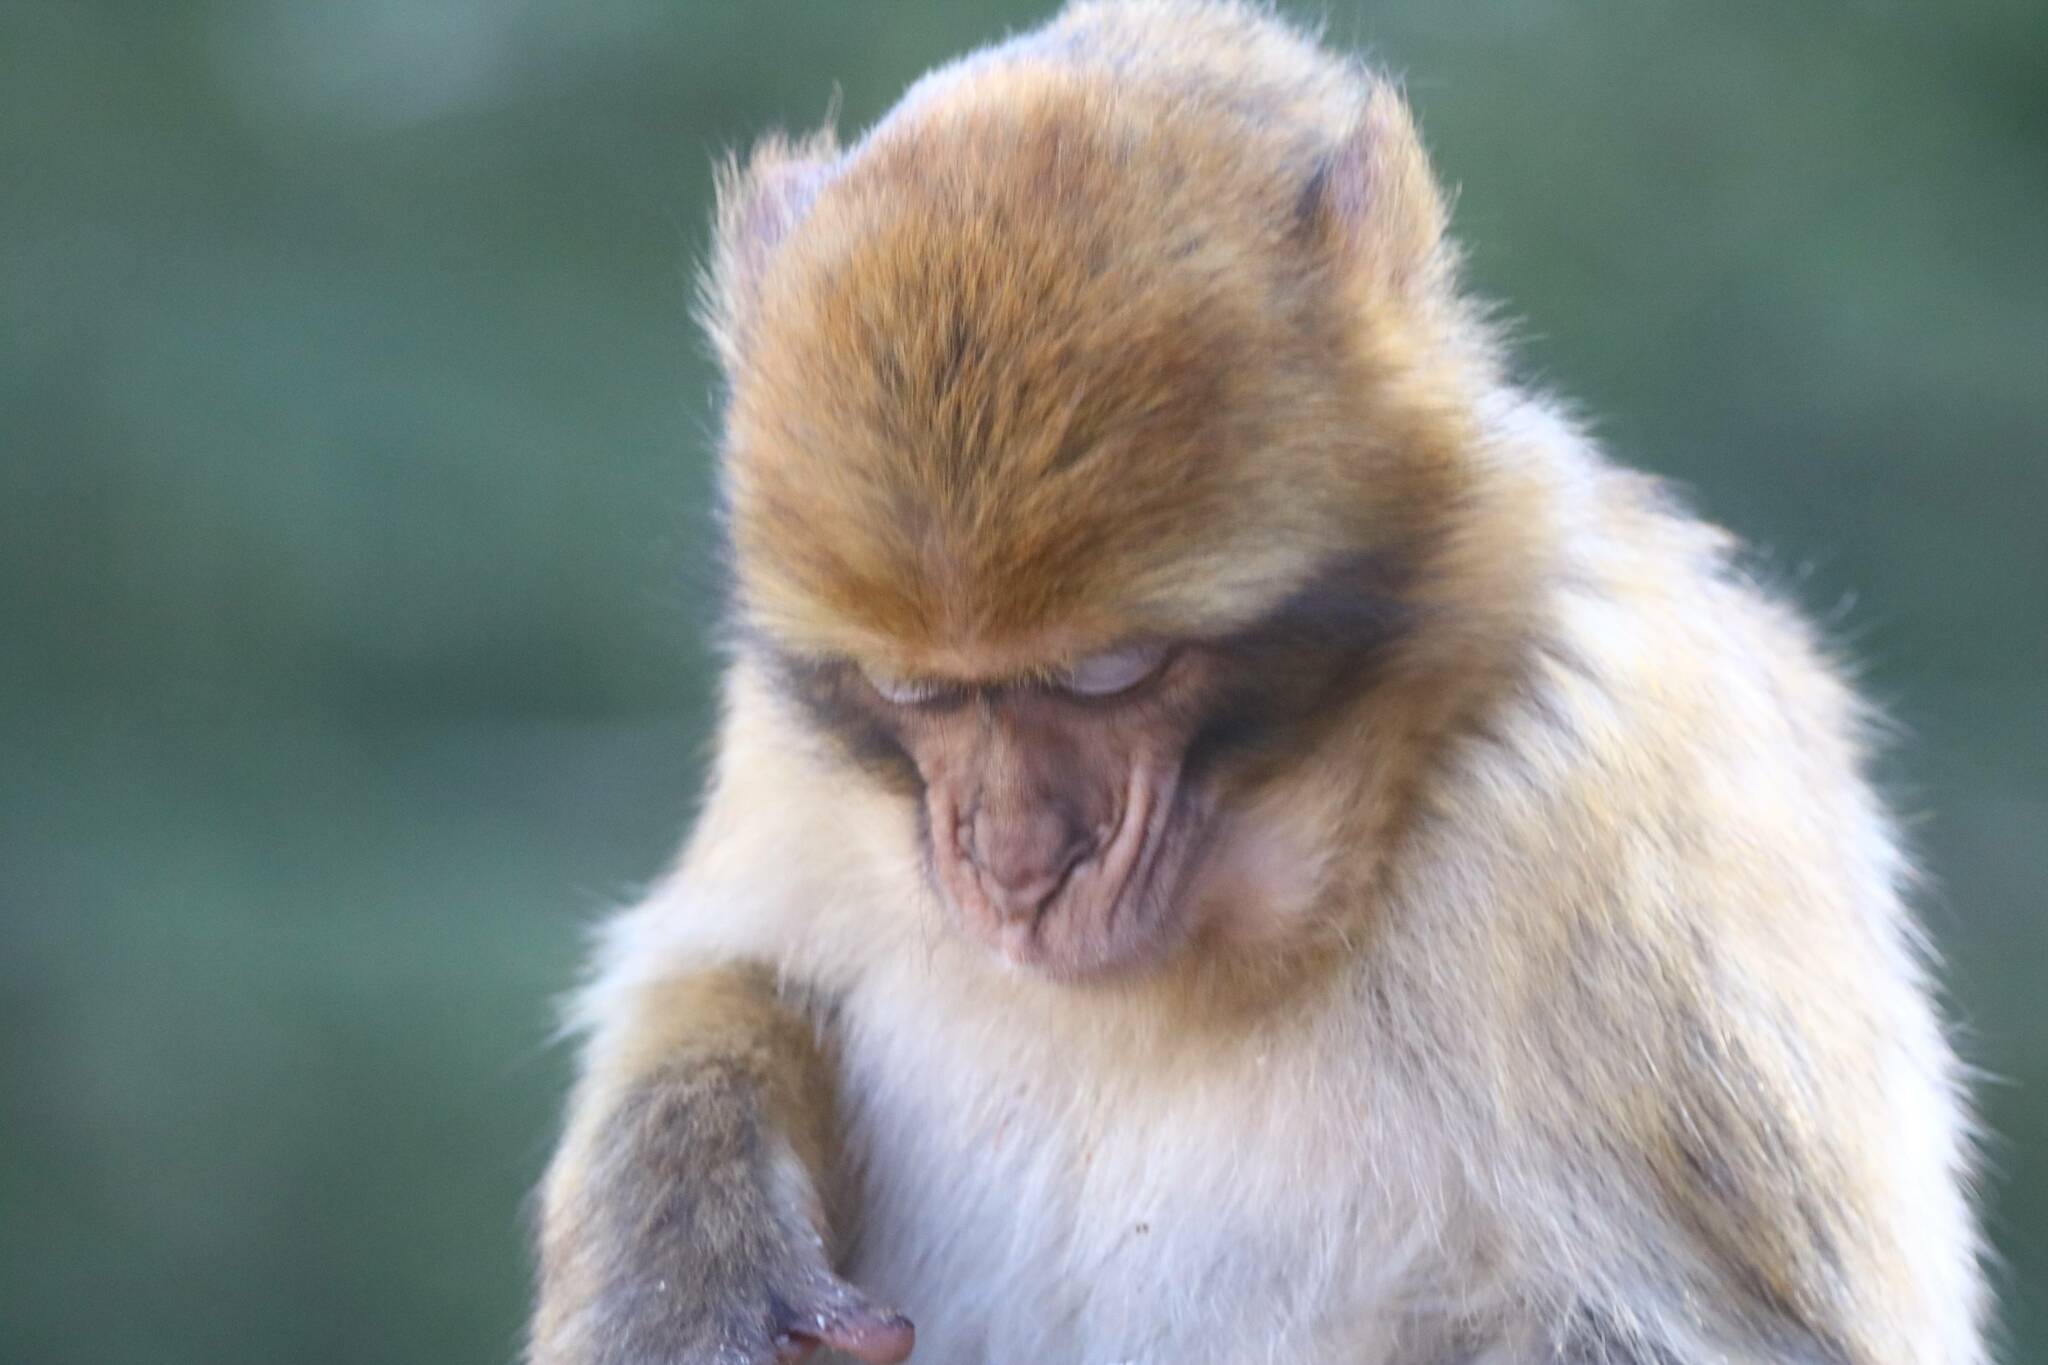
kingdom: Animalia
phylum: Chordata
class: Mammalia
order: Primates
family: Cercopithecidae
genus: Macaca
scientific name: Macaca sylvanus
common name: Barbary macaque
